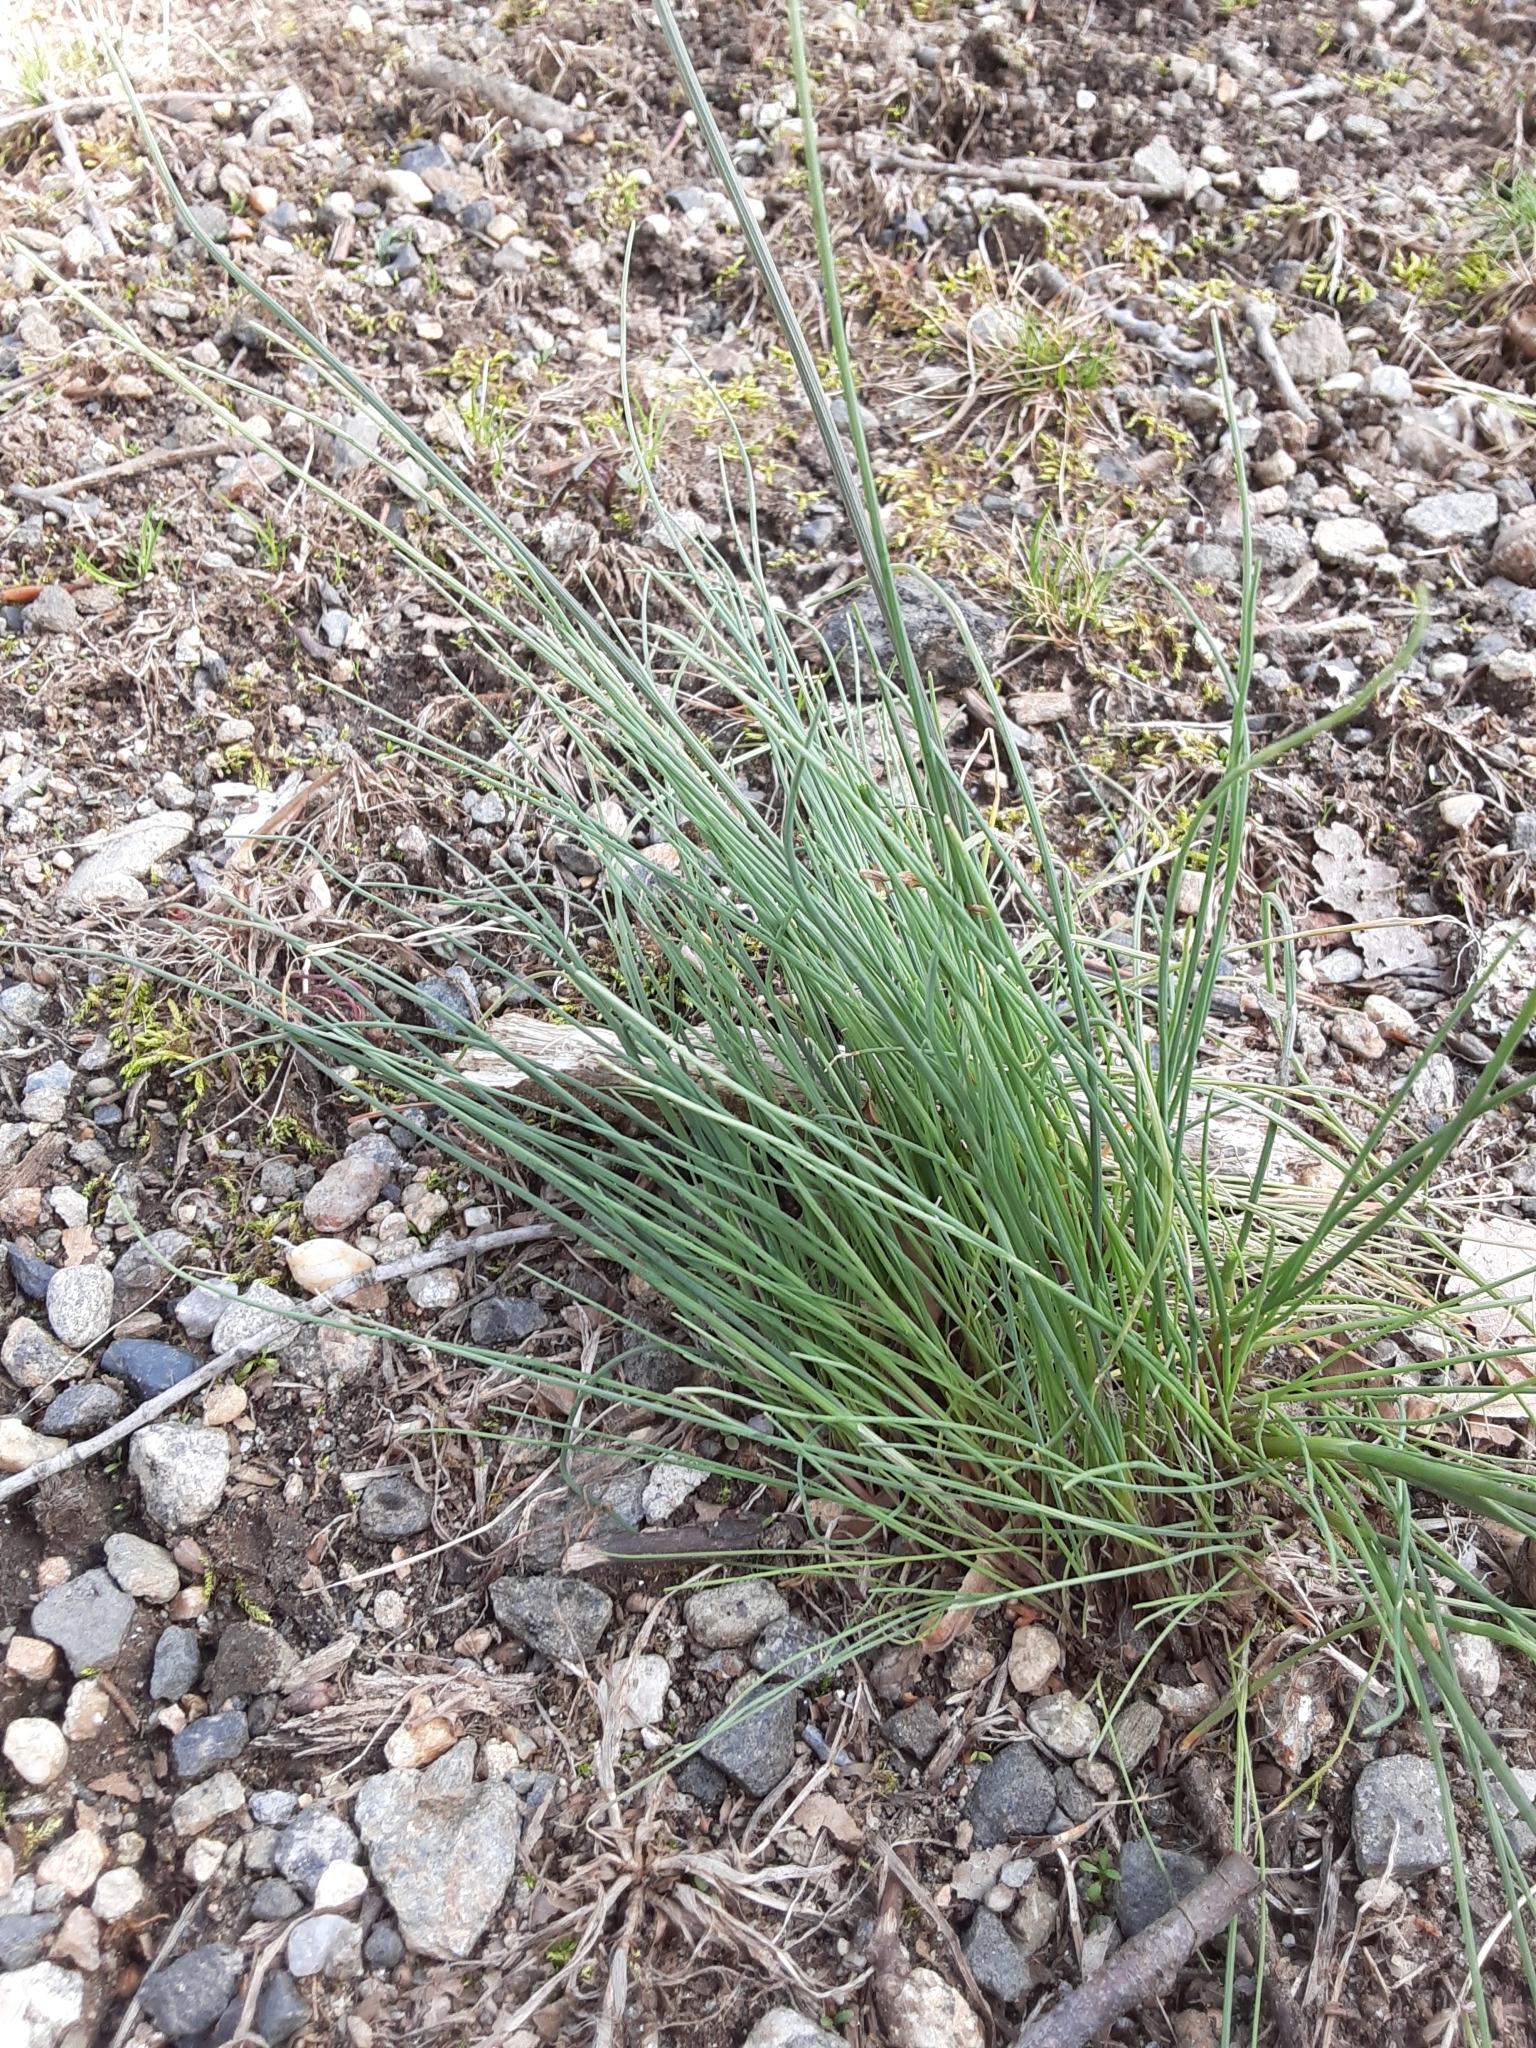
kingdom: Plantae
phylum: Tracheophyta
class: Liliopsida
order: Asparagales
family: Amaryllidaceae
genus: Allium
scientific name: Allium vineale
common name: Crow garlic
